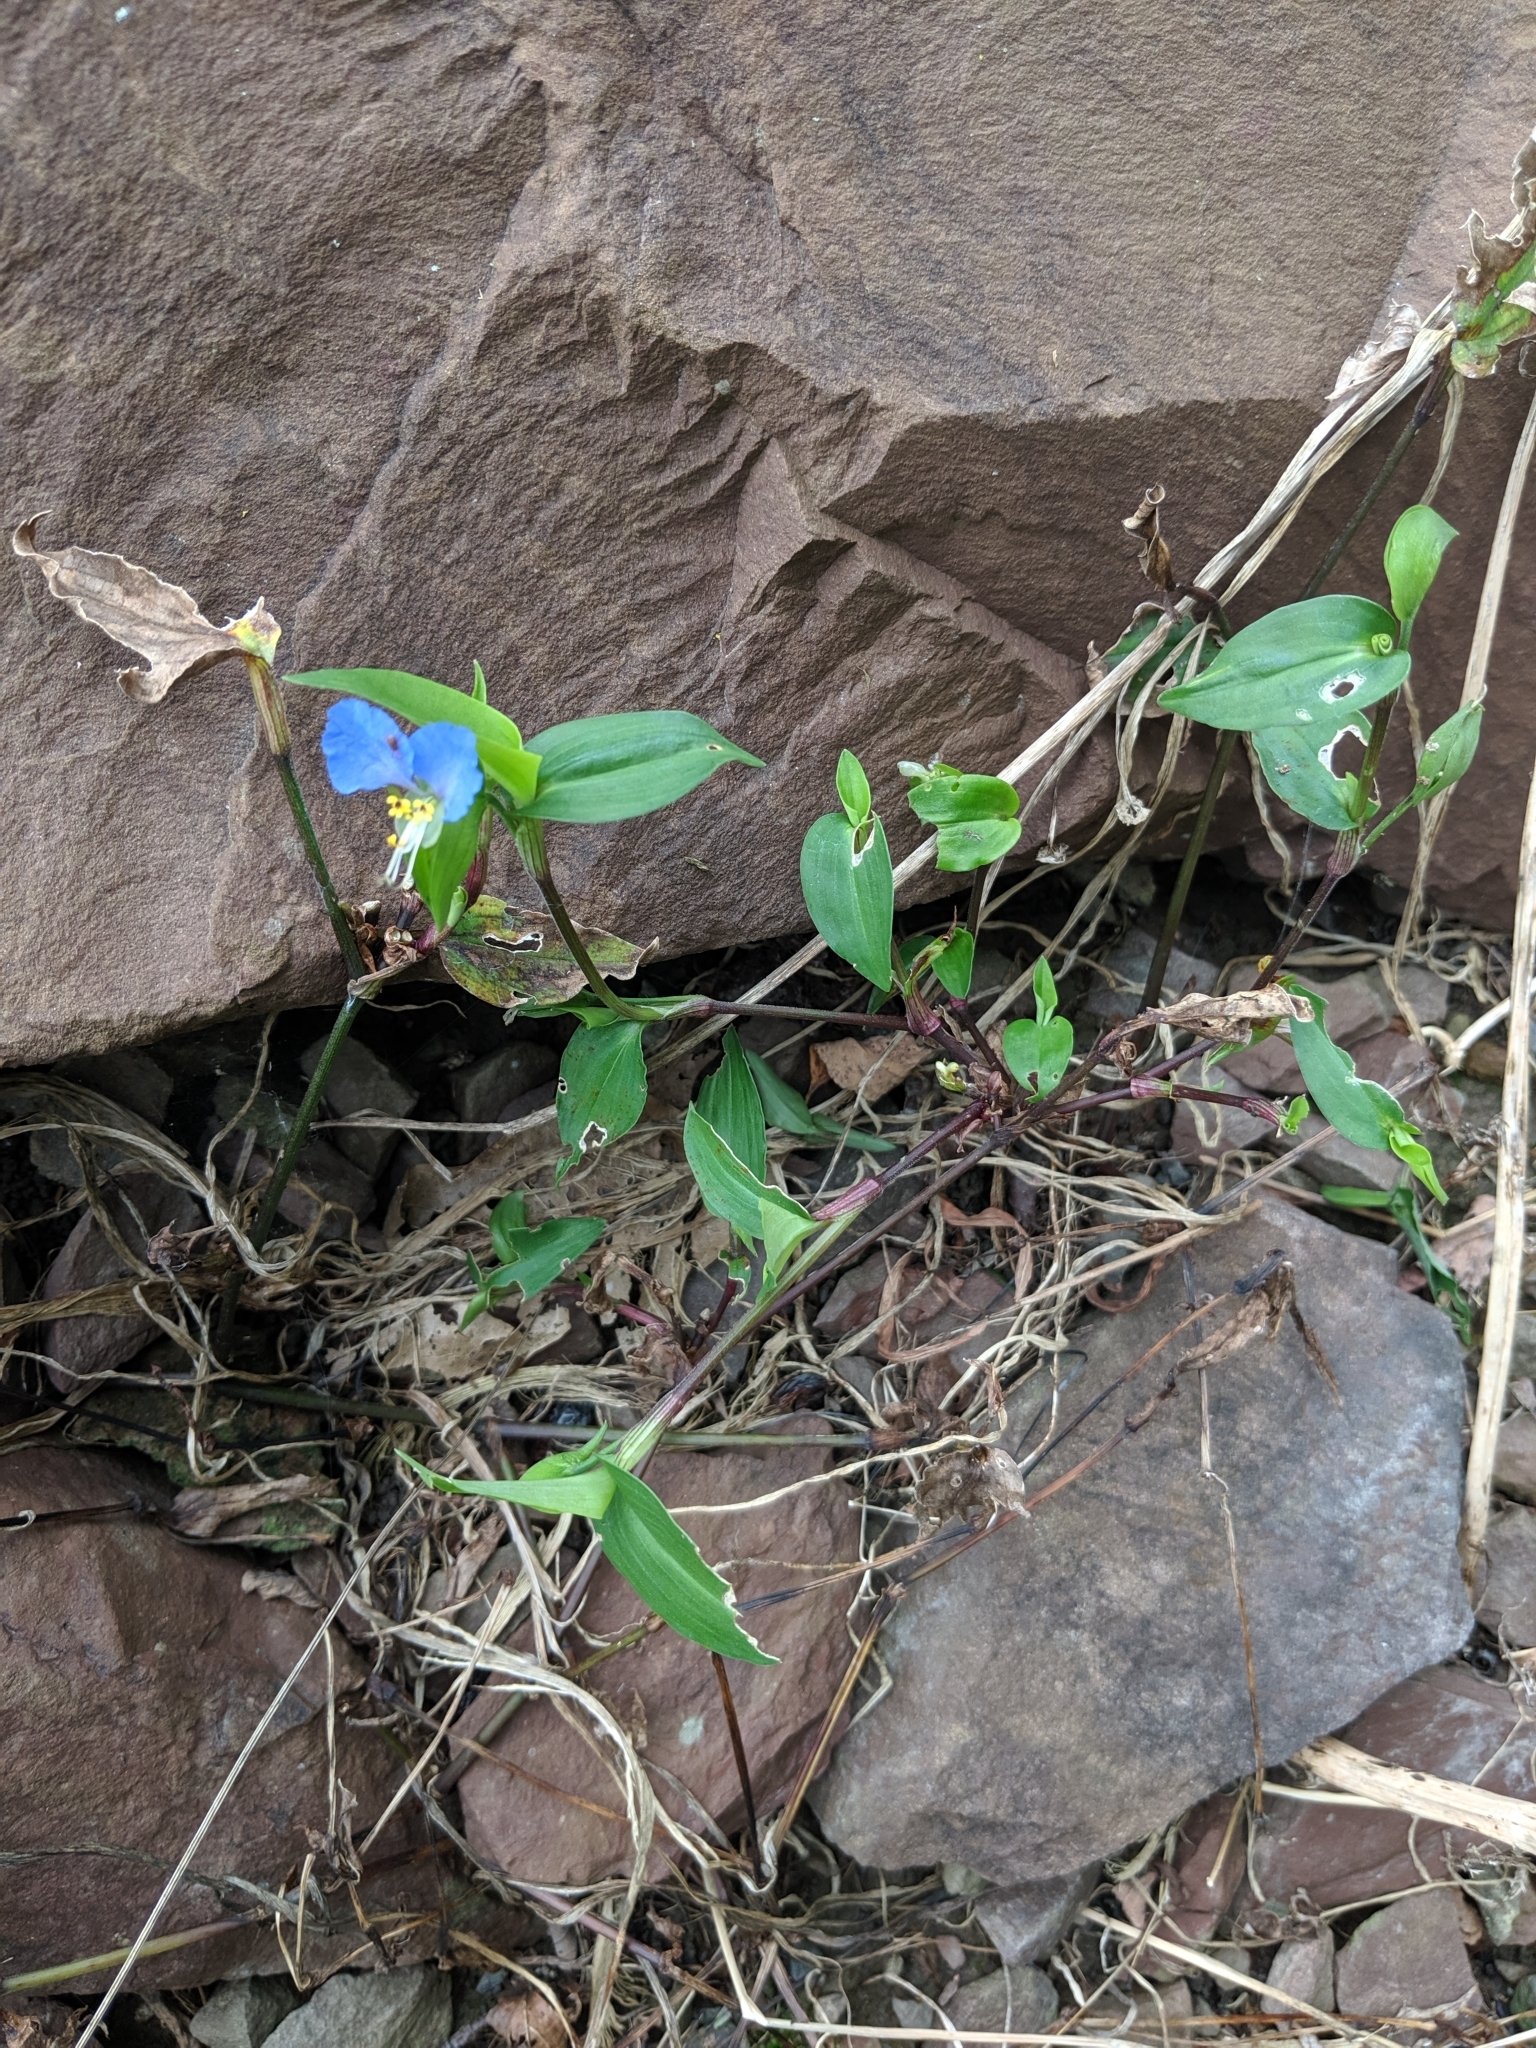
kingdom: Plantae
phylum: Tracheophyta
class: Liliopsida
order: Commelinales
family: Commelinaceae
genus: Commelina
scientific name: Commelina communis
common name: Asiatic dayflower
